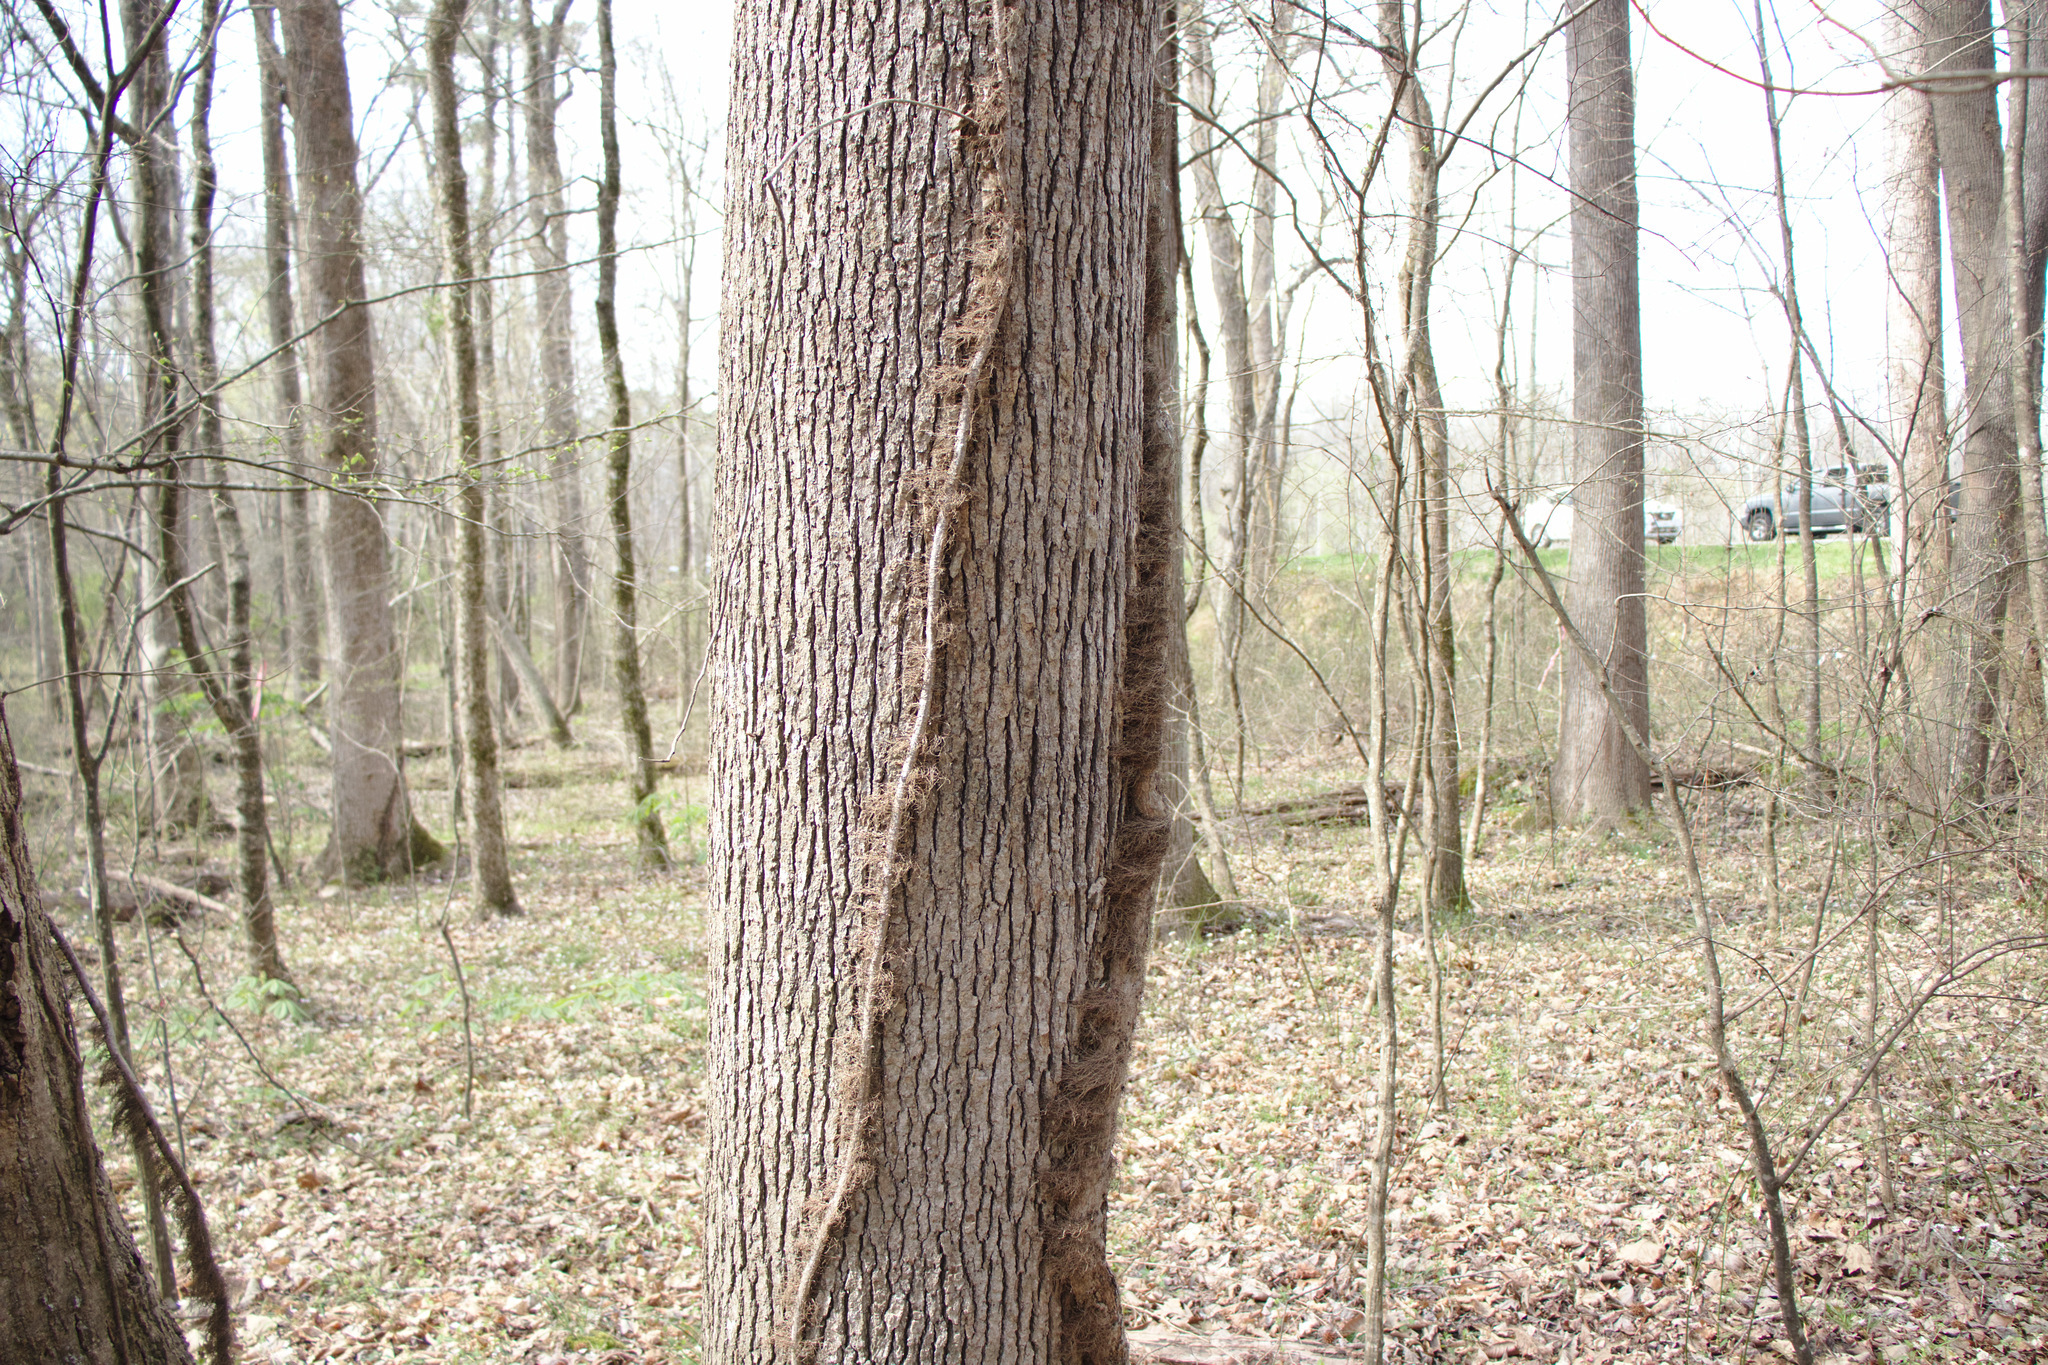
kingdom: Plantae
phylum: Tracheophyta
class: Magnoliopsida
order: Sapindales
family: Anacardiaceae
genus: Toxicodendron
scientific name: Toxicodendron radicans
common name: Poison ivy
